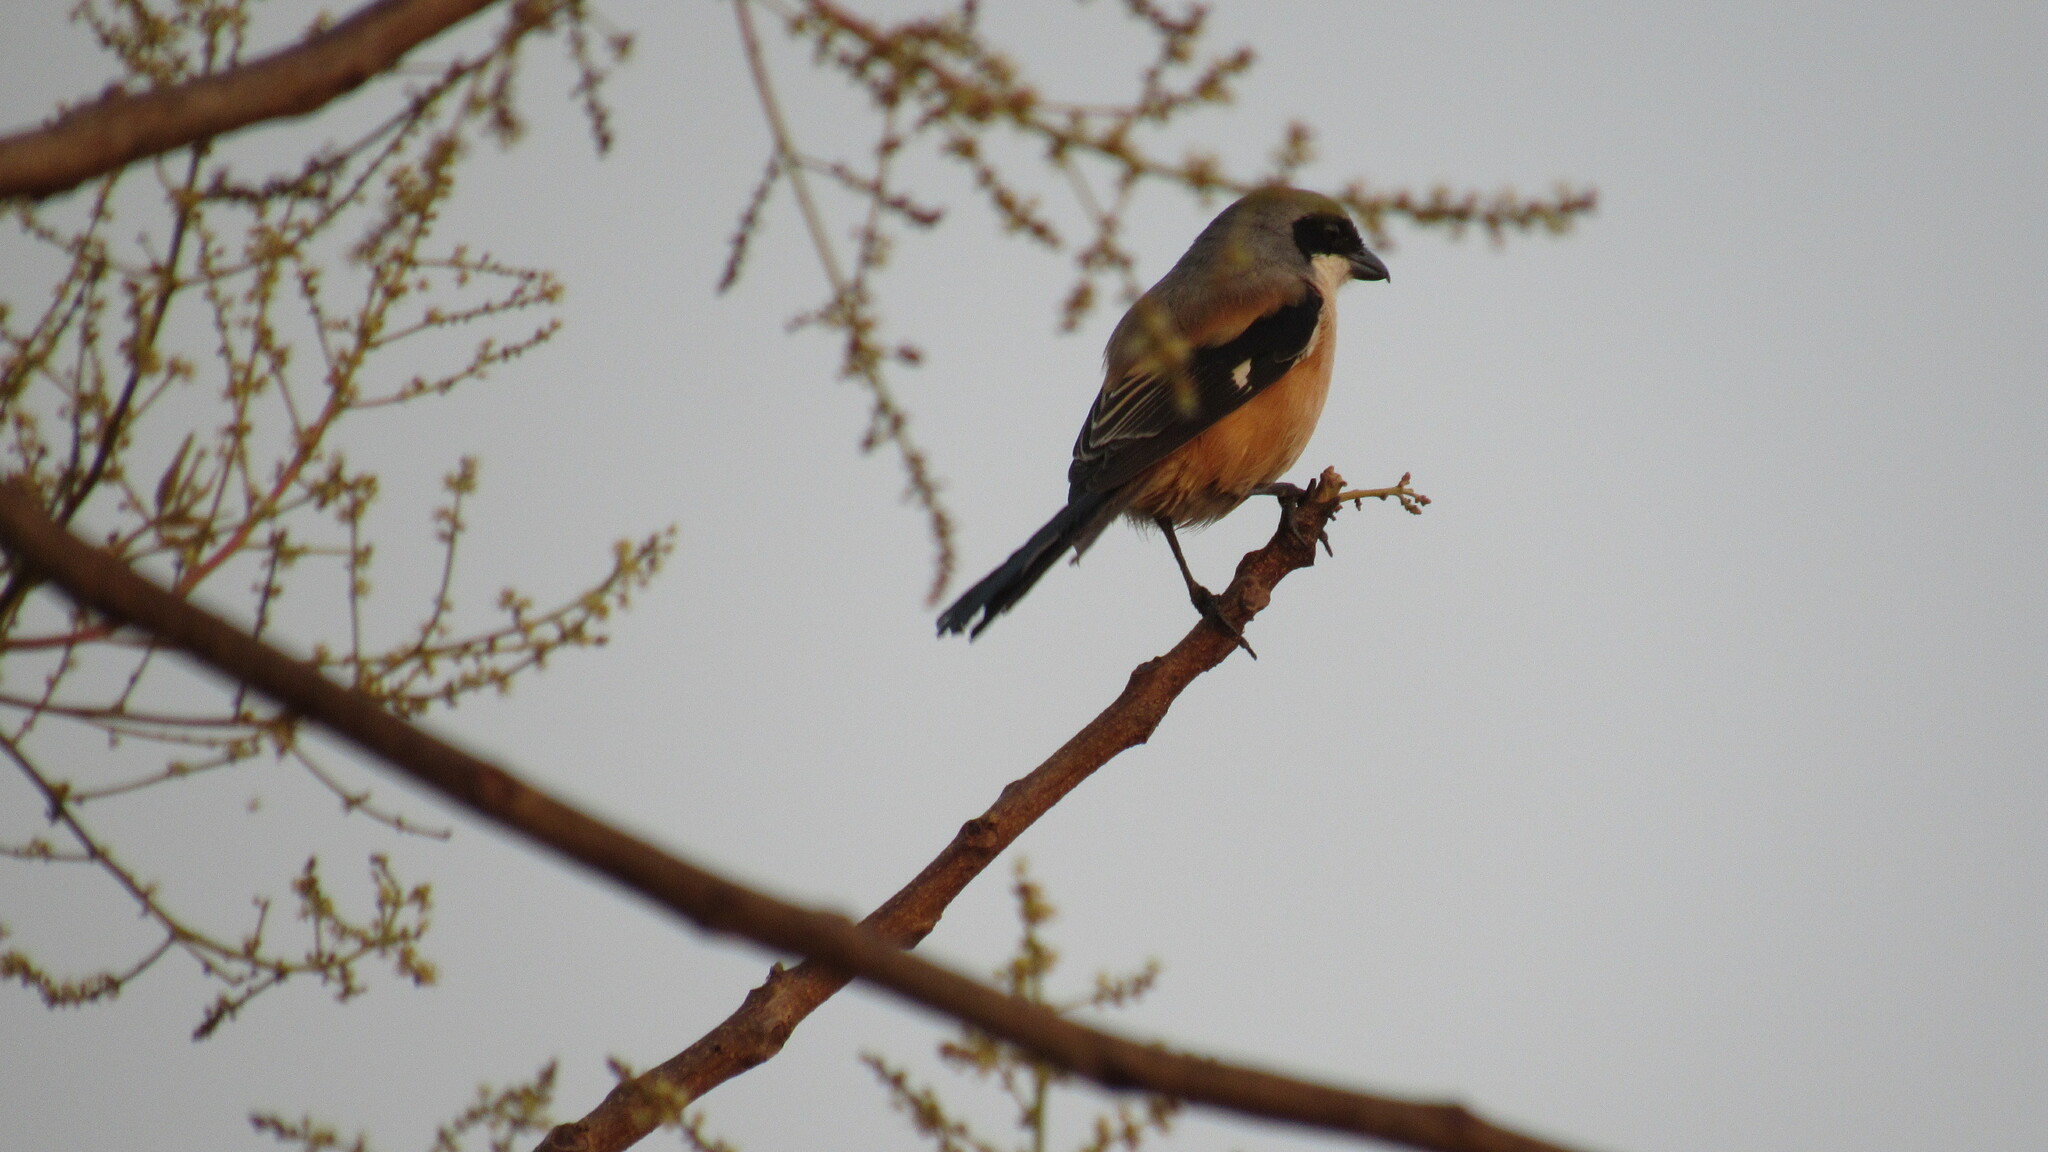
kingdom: Animalia
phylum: Chordata
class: Aves
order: Passeriformes
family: Laniidae
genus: Lanius
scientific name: Lanius schach
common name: Long-tailed shrike
